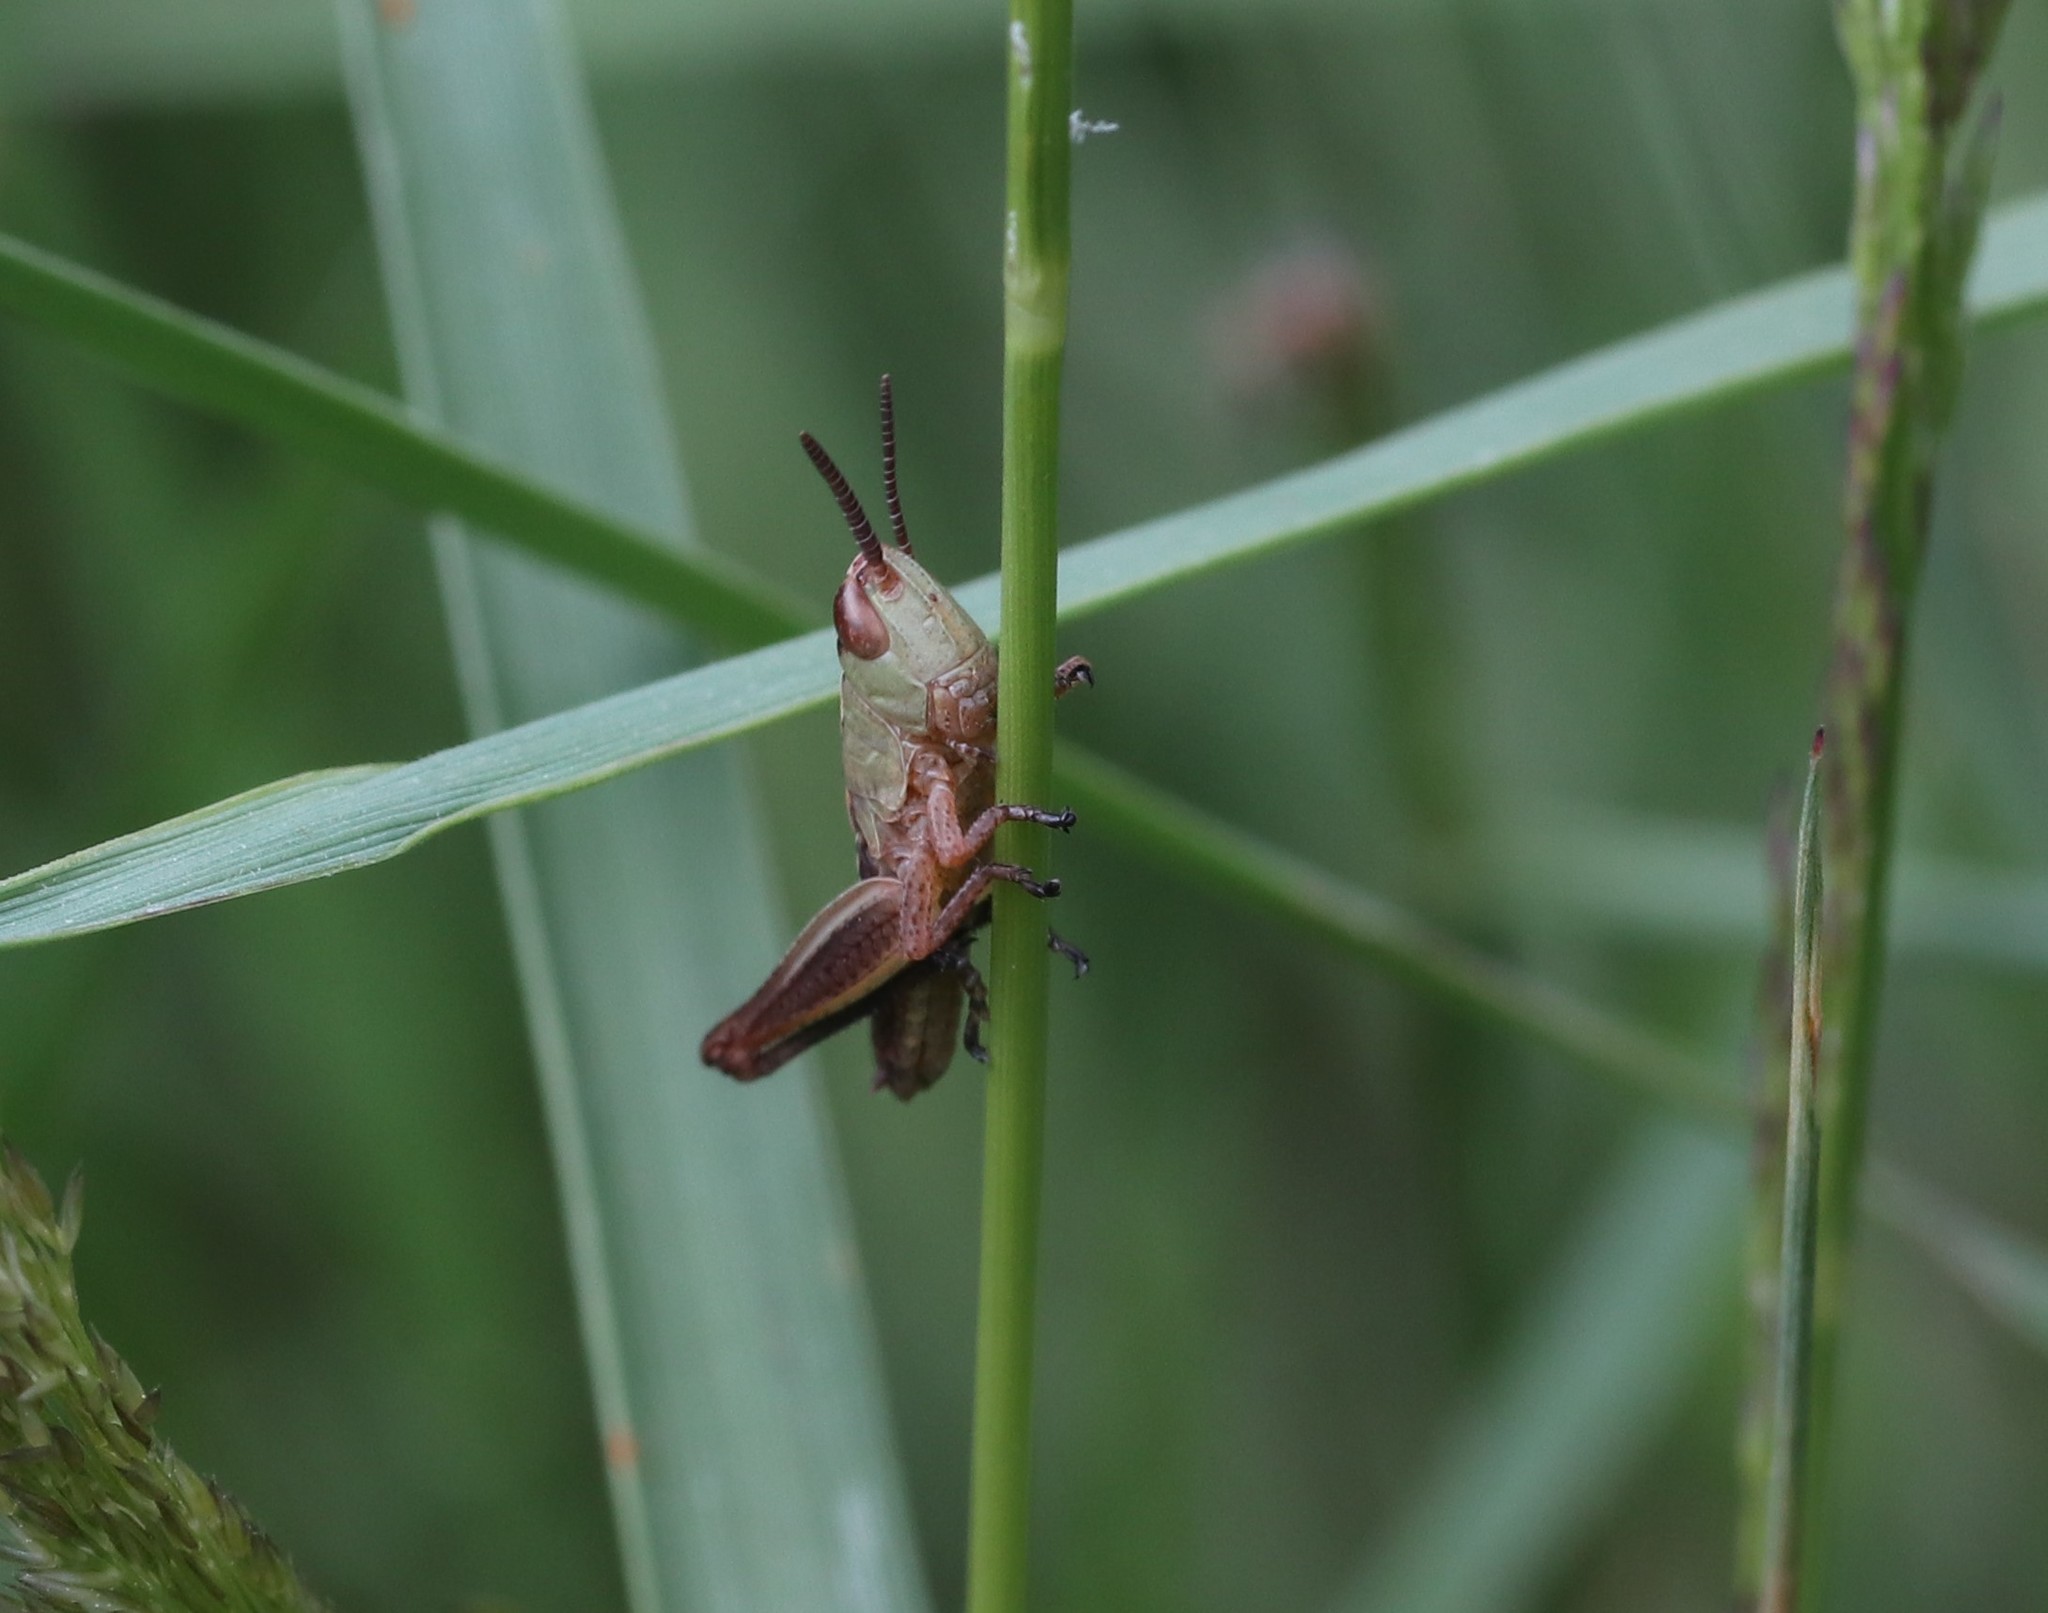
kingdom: Animalia
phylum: Arthropoda
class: Insecta
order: Orthoptera
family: Acrididae
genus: Pseudochorthippus
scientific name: Pseudochorthippus parallelus
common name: Meadow grasshopper
